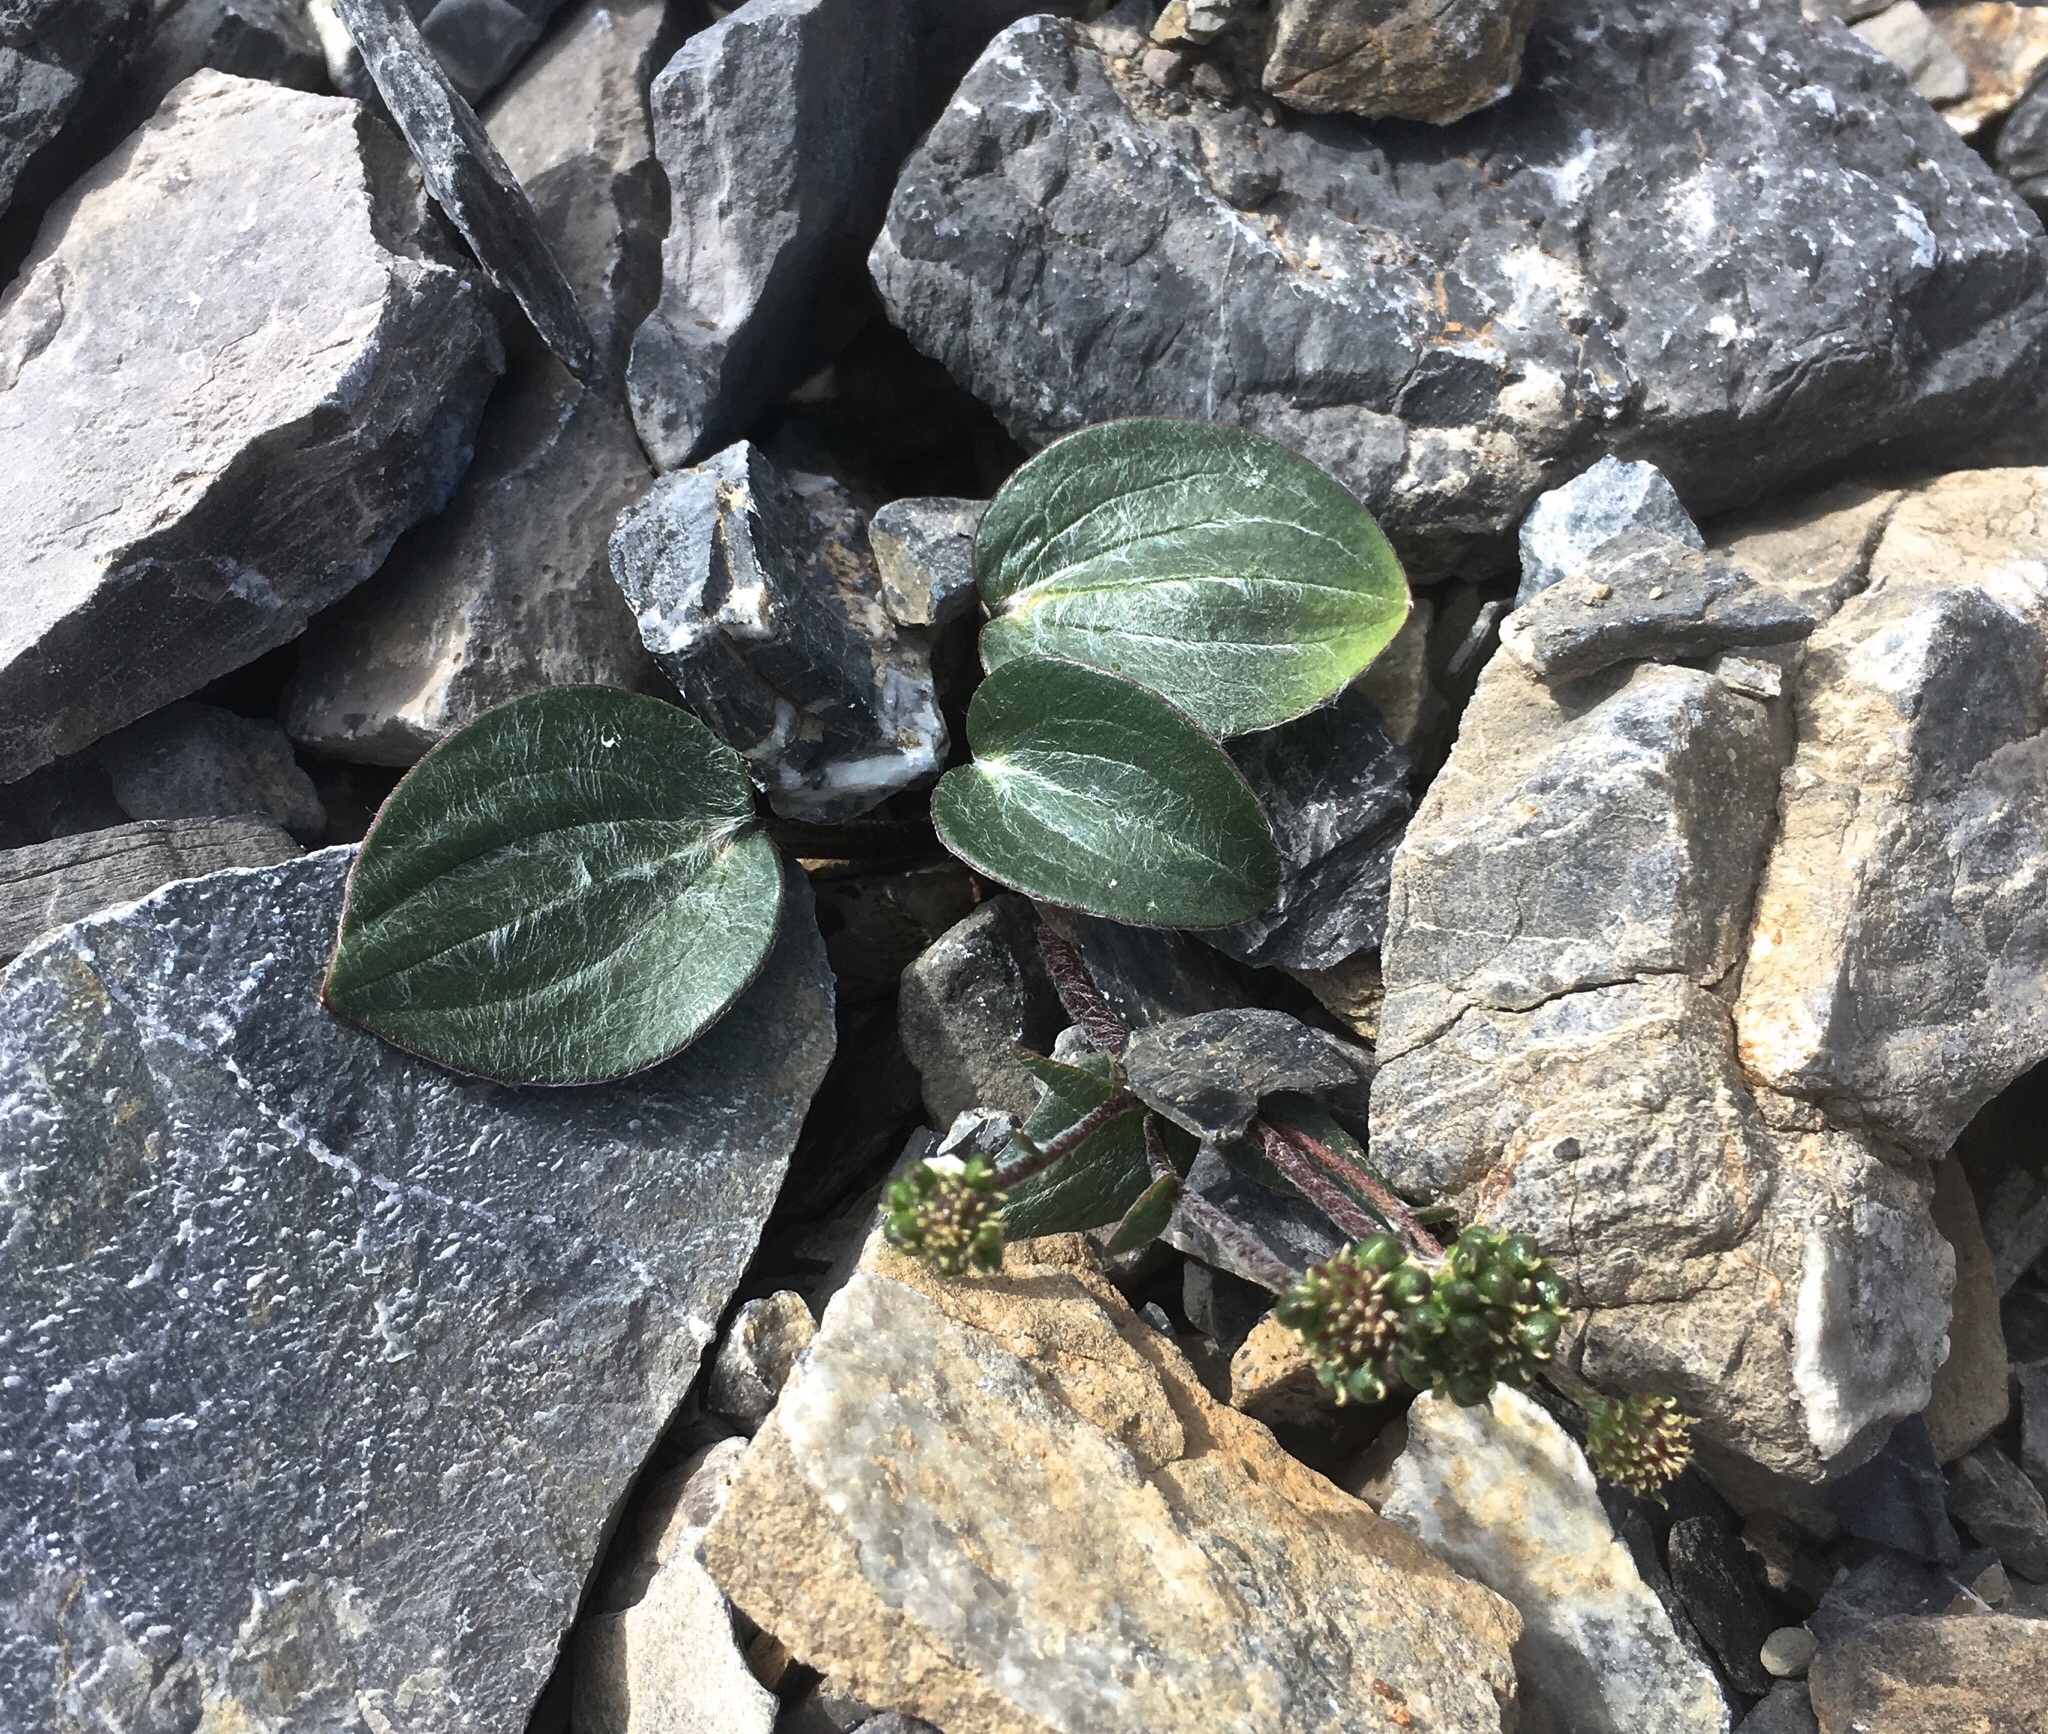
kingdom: Plantae
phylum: Tracheophyta
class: Magnoliopsida
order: Ranunculales
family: Ranunculaceae
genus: Ranunculus
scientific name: Ranunculus parnassiifolius
